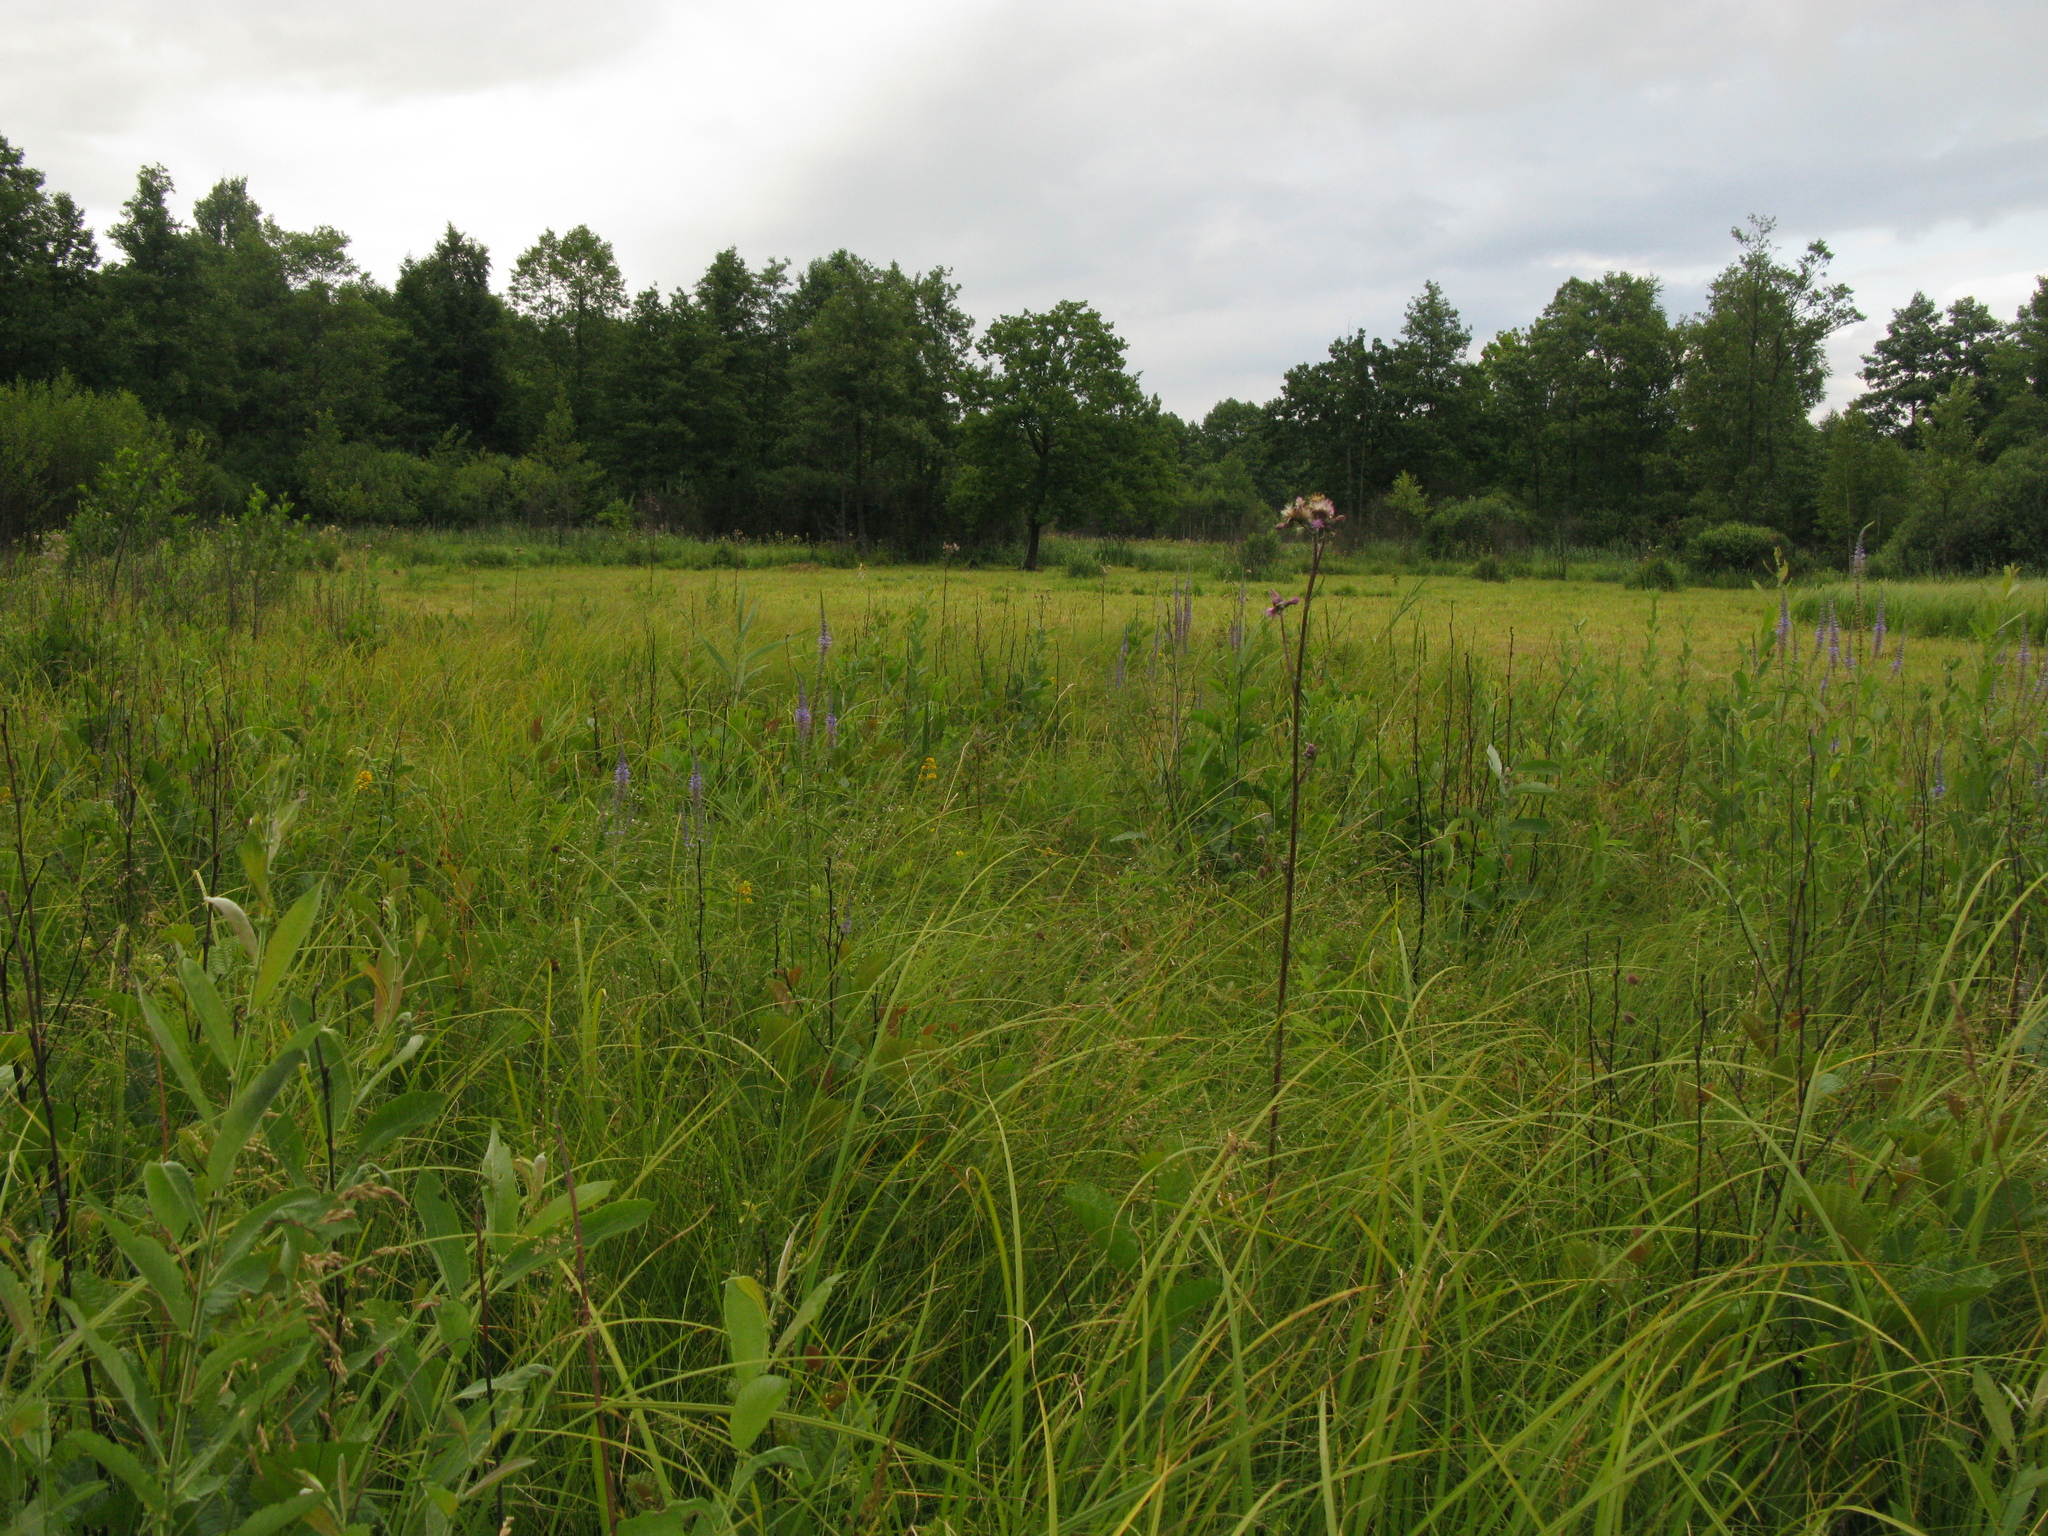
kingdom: Plantae
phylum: Tracheophyta
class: Magnoliopsida
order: Asterales
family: Asteraceae
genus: Cirsium
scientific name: Cirsium palustre
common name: Marsh thistle
